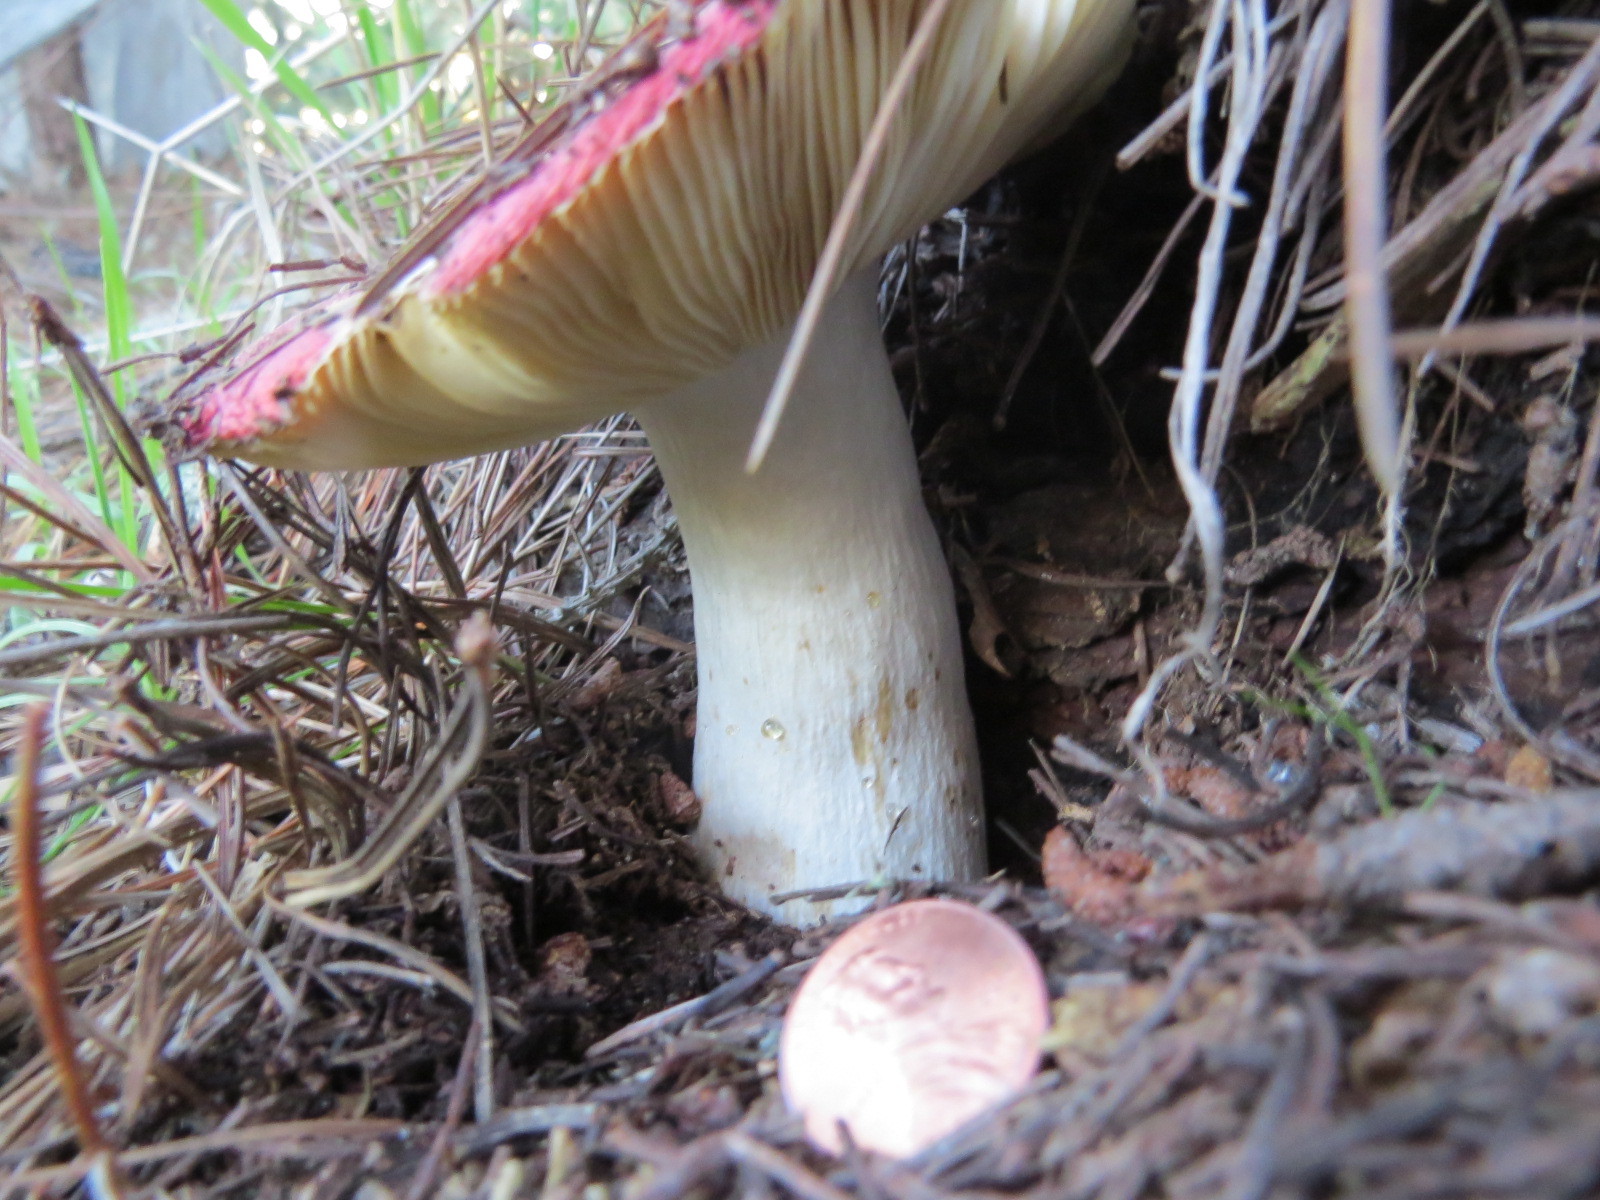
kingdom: Fungi
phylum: Basidiomycota
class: Agaricomycetes
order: Russulales
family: Russulaceae
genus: Russula
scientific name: Russula californiensis
